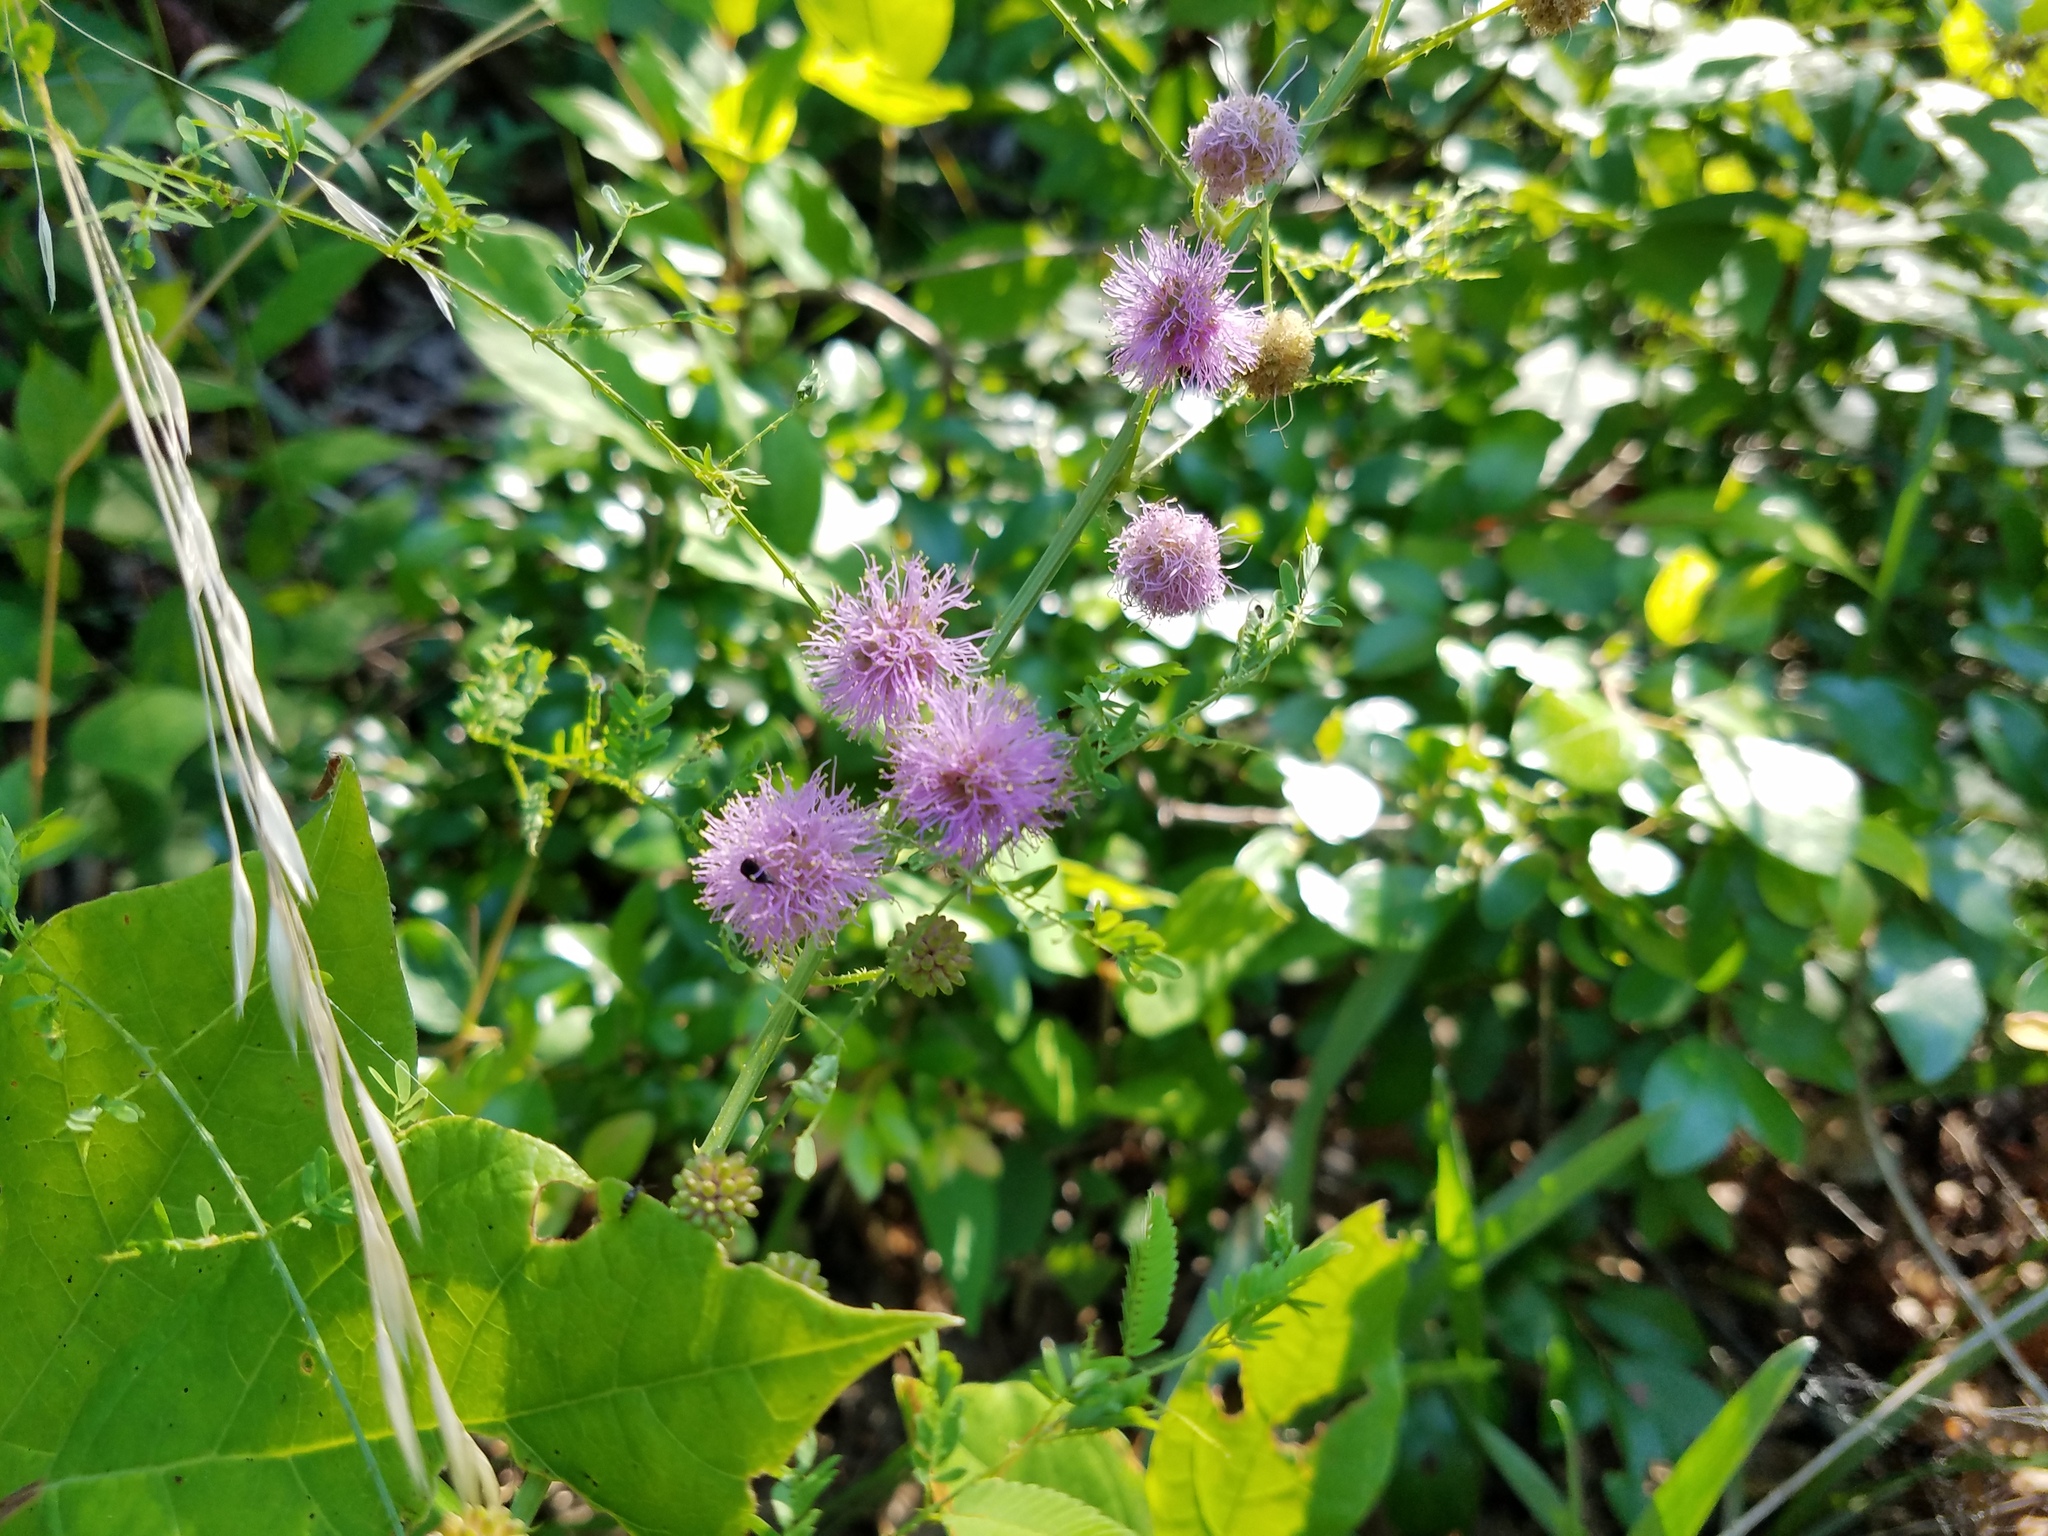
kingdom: Plantae
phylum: Tracheophyta
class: Magnoliopsida
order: Fabales
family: Fabaceae
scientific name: Fabaceae
